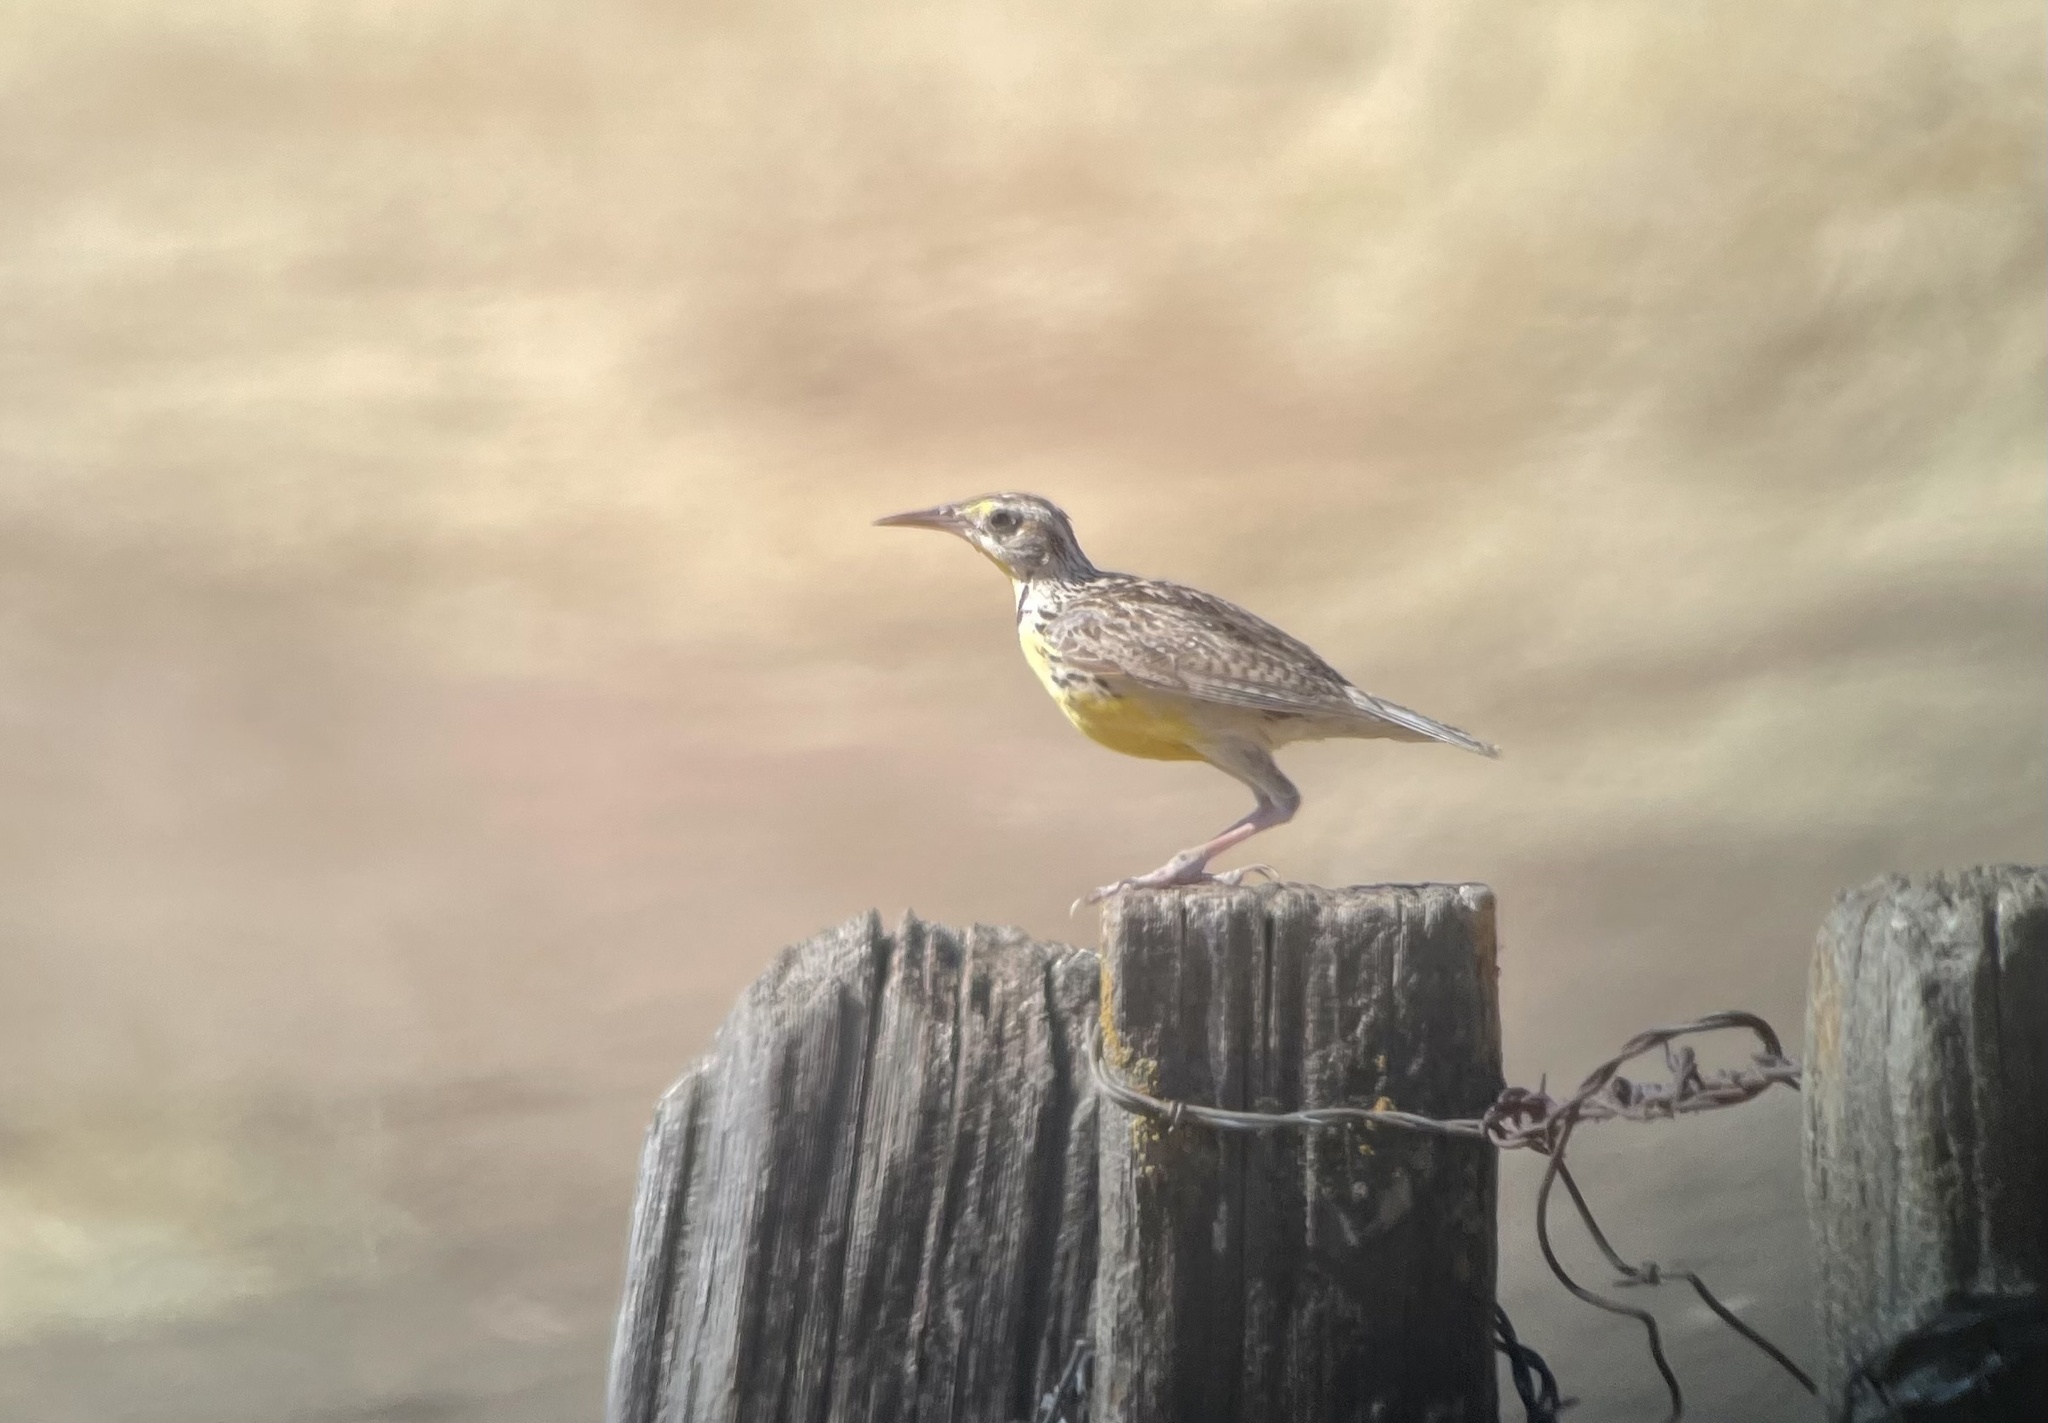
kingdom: Animalia
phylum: Chordata
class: Aves
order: Passeriformes
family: Icteridae
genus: Sturnella
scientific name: Sturnella neglecta
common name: Western meadowlark
